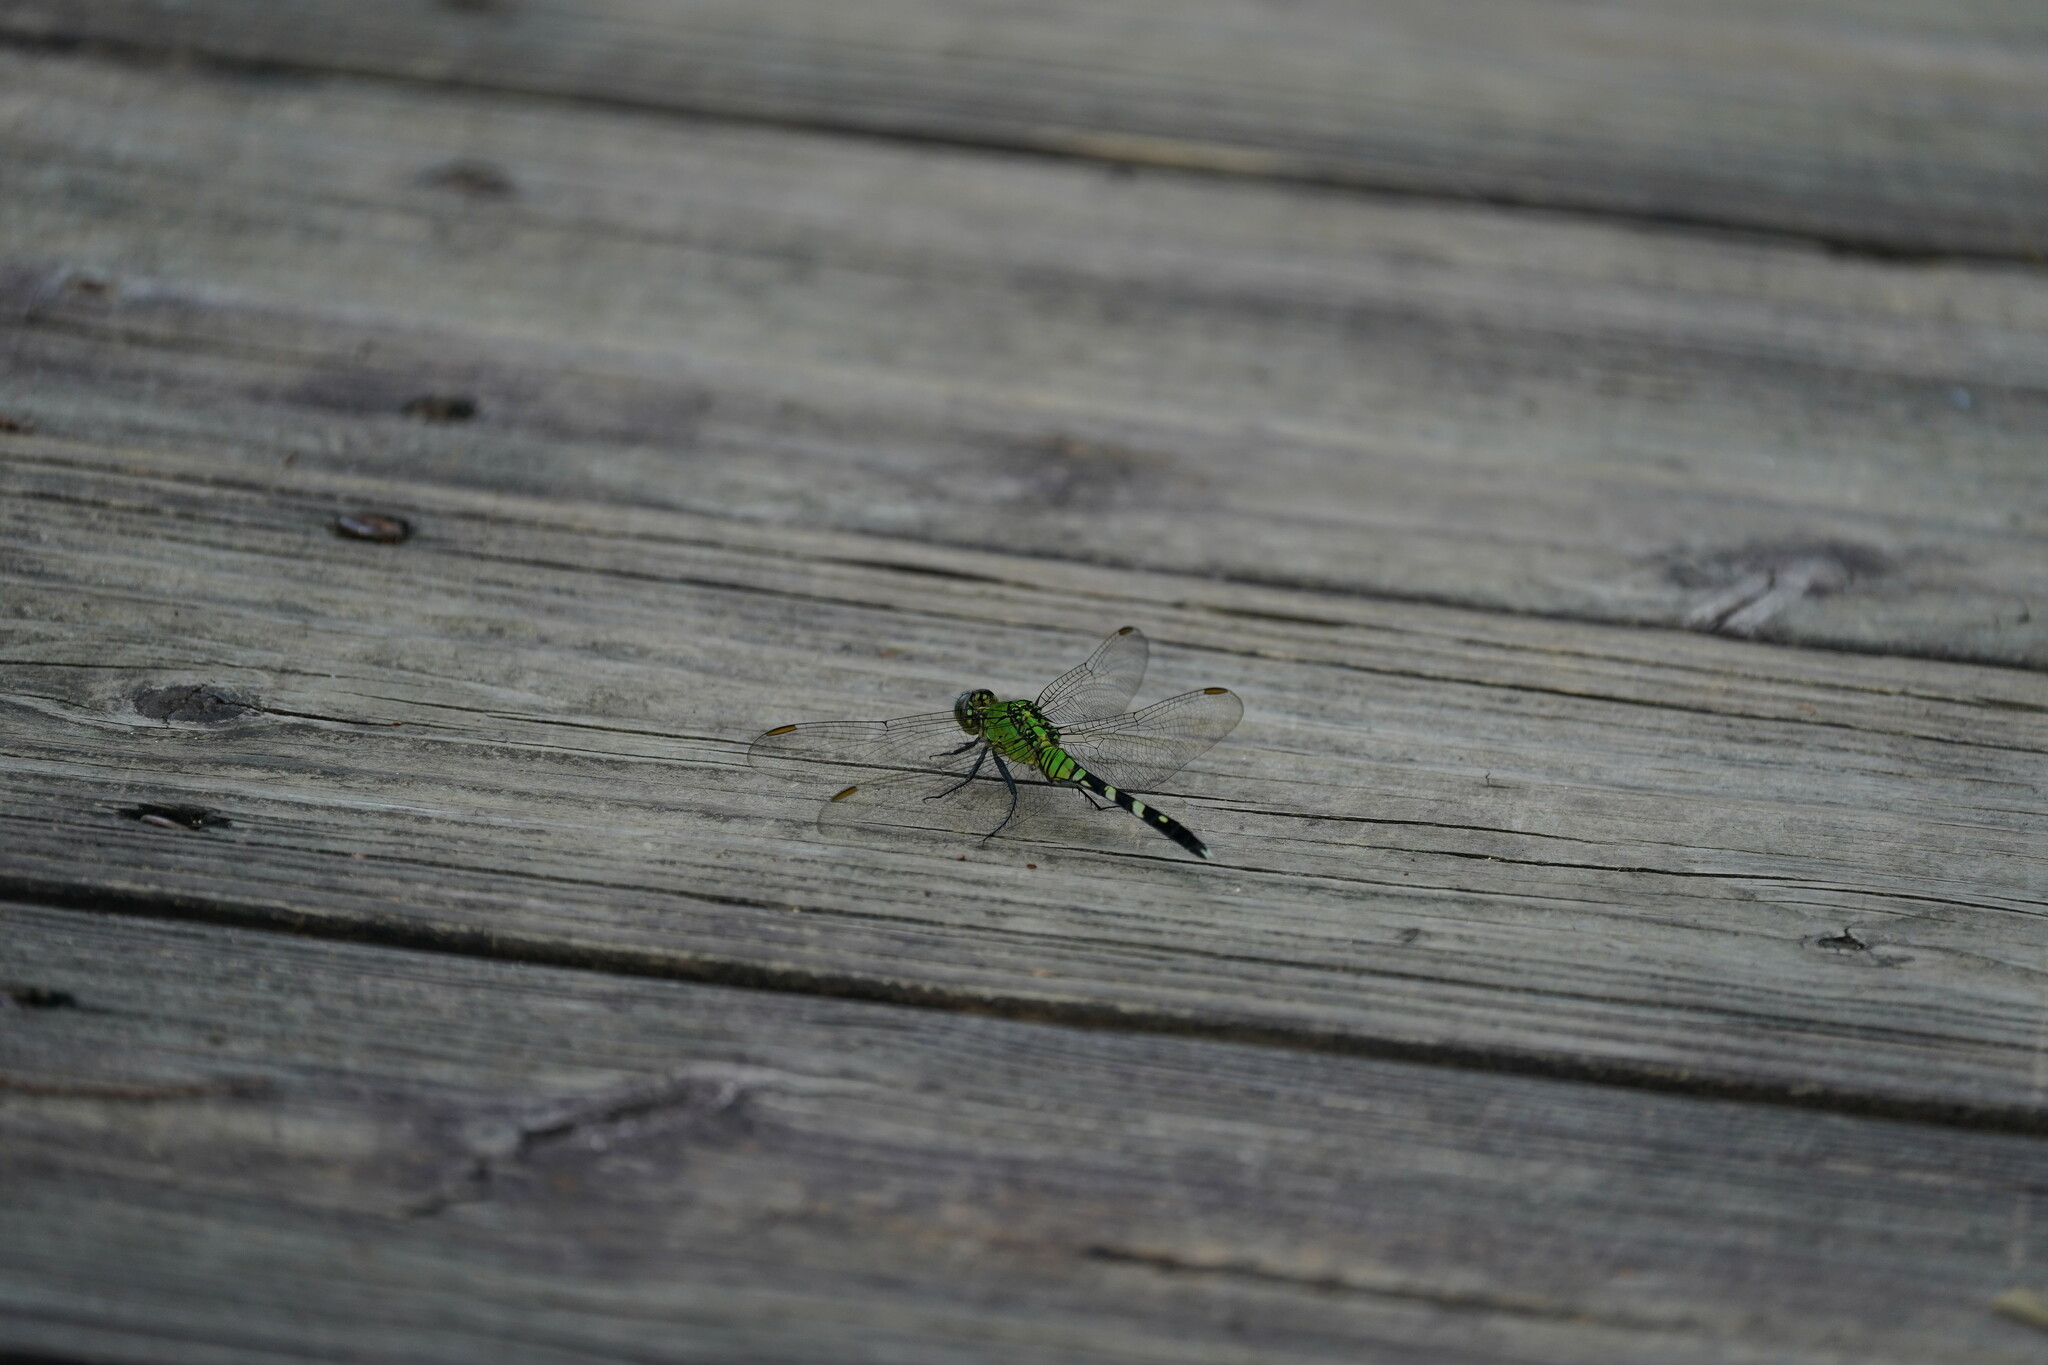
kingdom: Animalia
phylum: Arthropoda
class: Insecta
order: Odonata
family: Libellulidae
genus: Erythemis
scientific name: Erythemis simplicicollis
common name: Eastern pondhawk
